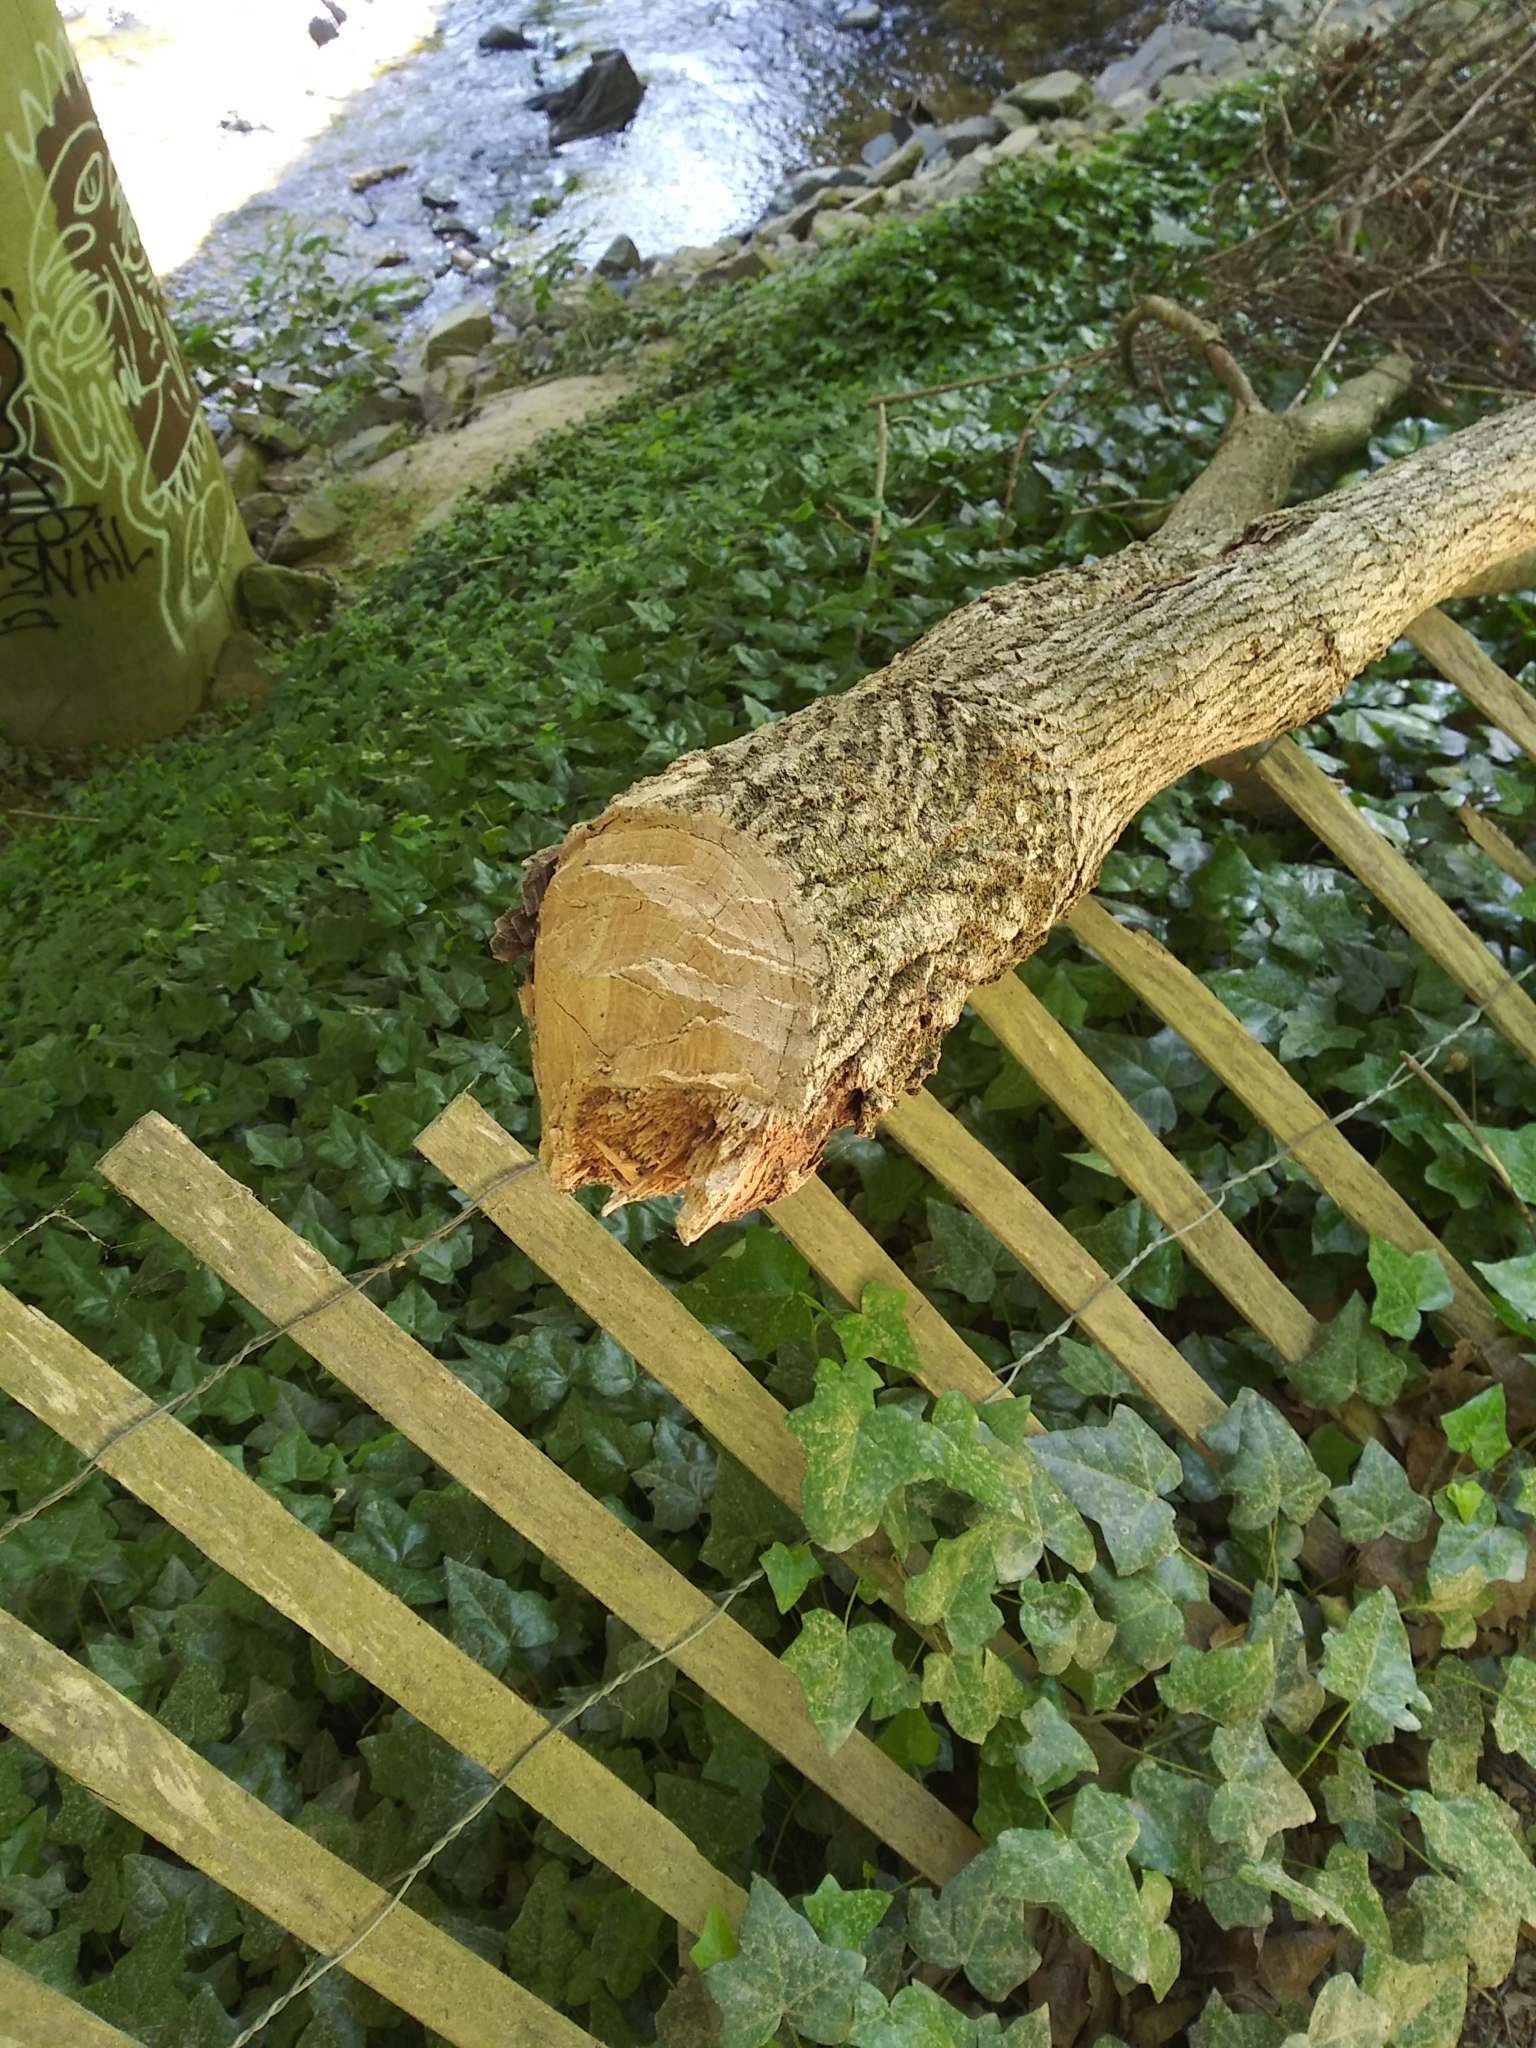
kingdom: Animalia
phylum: Chordata
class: Mammalia
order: Rodentia
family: Castoridae
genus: Castor
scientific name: Castor canadensis
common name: American beaver
